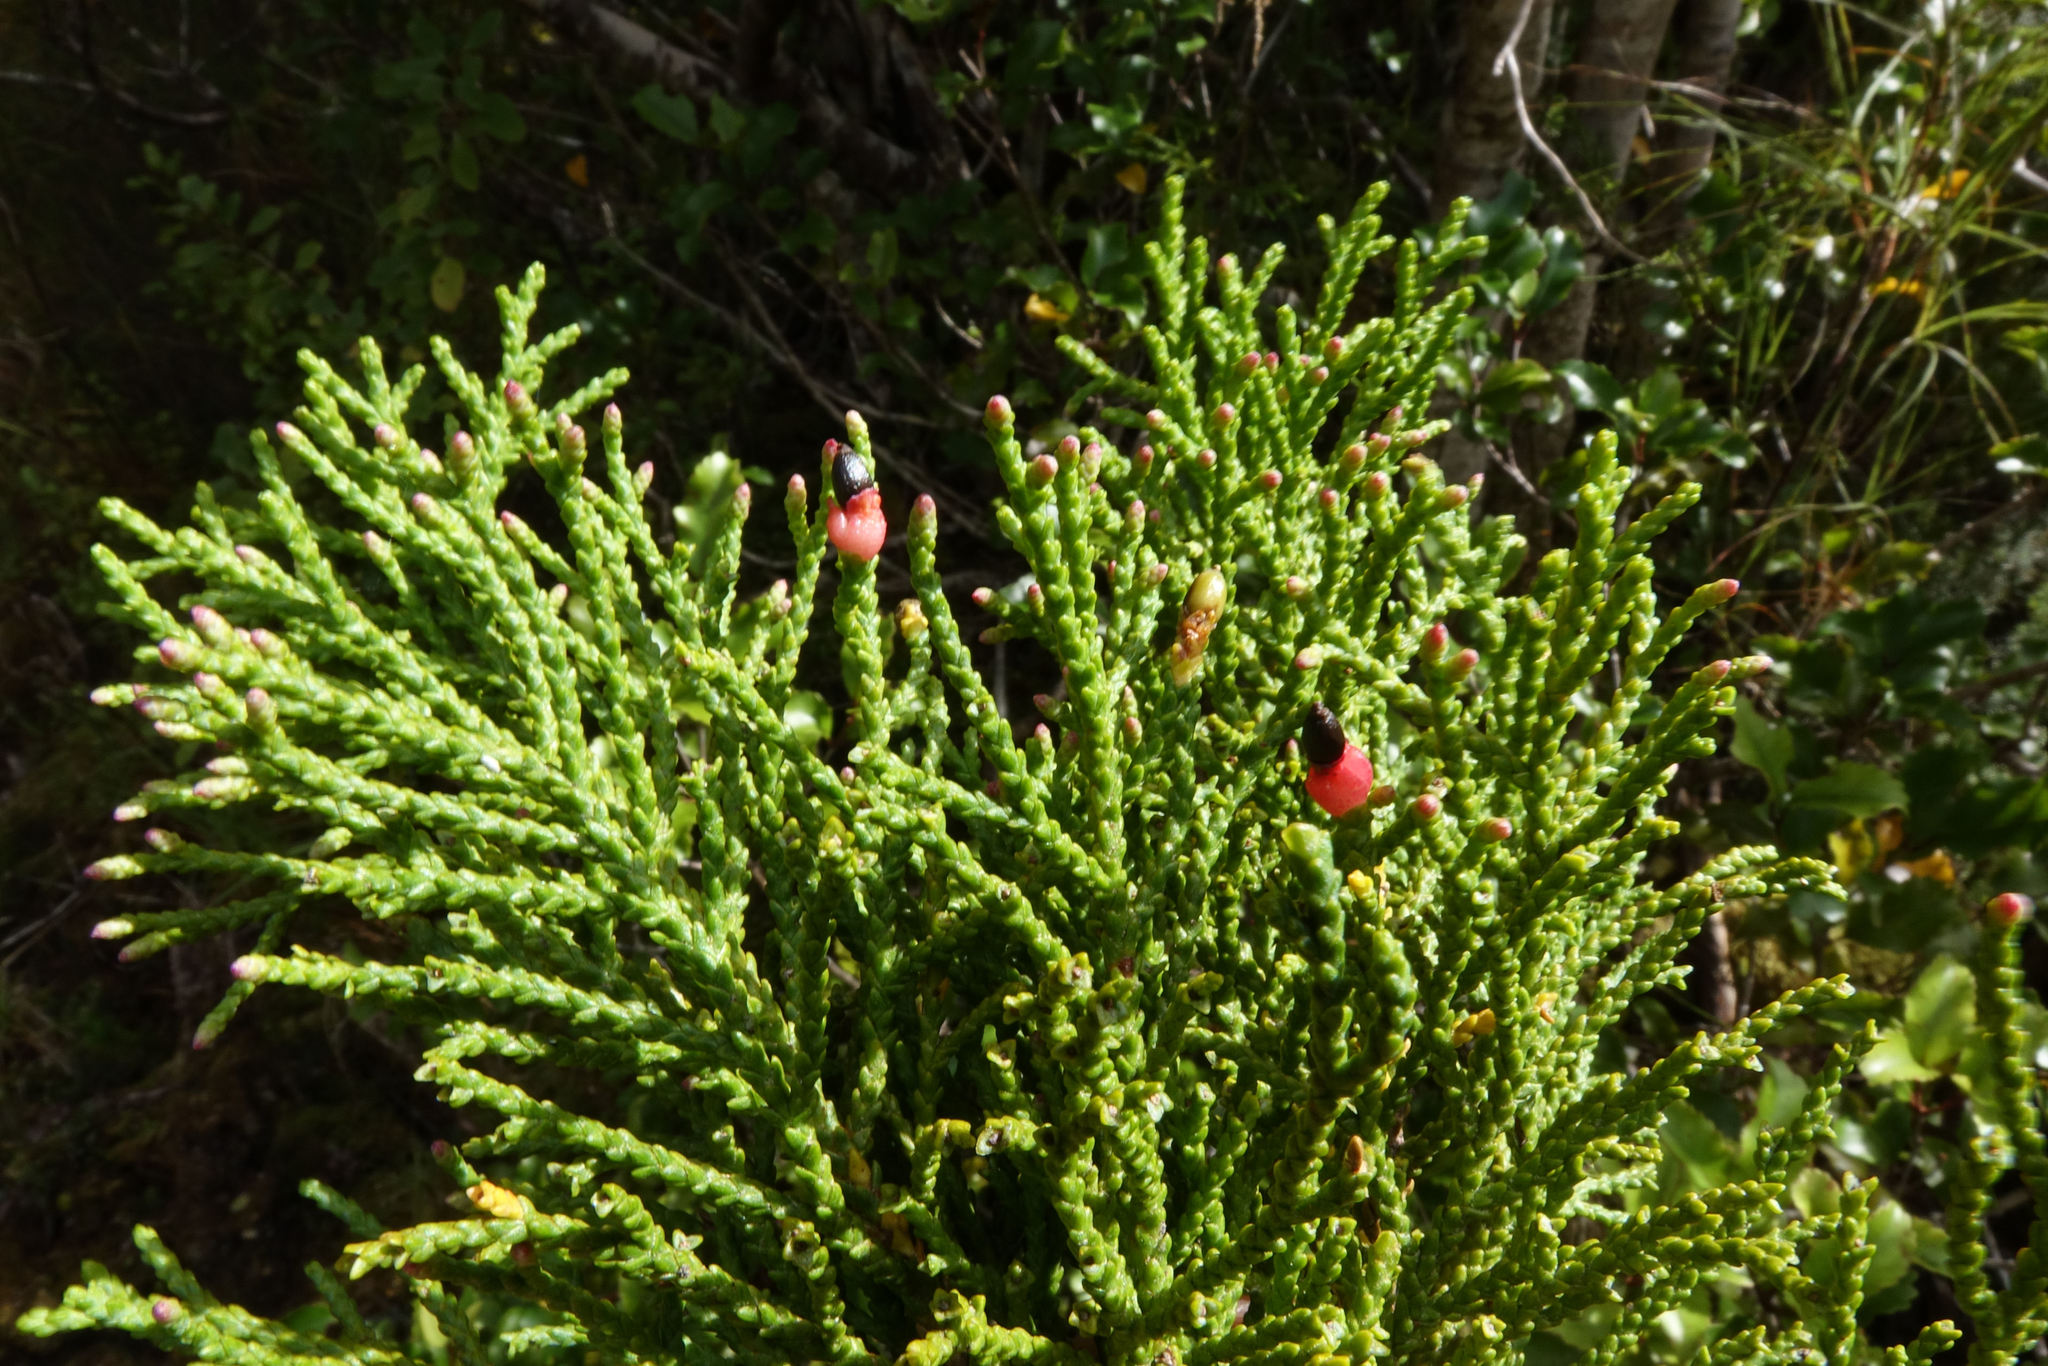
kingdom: Plantae
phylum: Tracheophyta
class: Pinopsida
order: Pinales
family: Podocarpaceae
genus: Lepidothamnus
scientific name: Lepidothamnus intermedius
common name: Yellow silver pine
